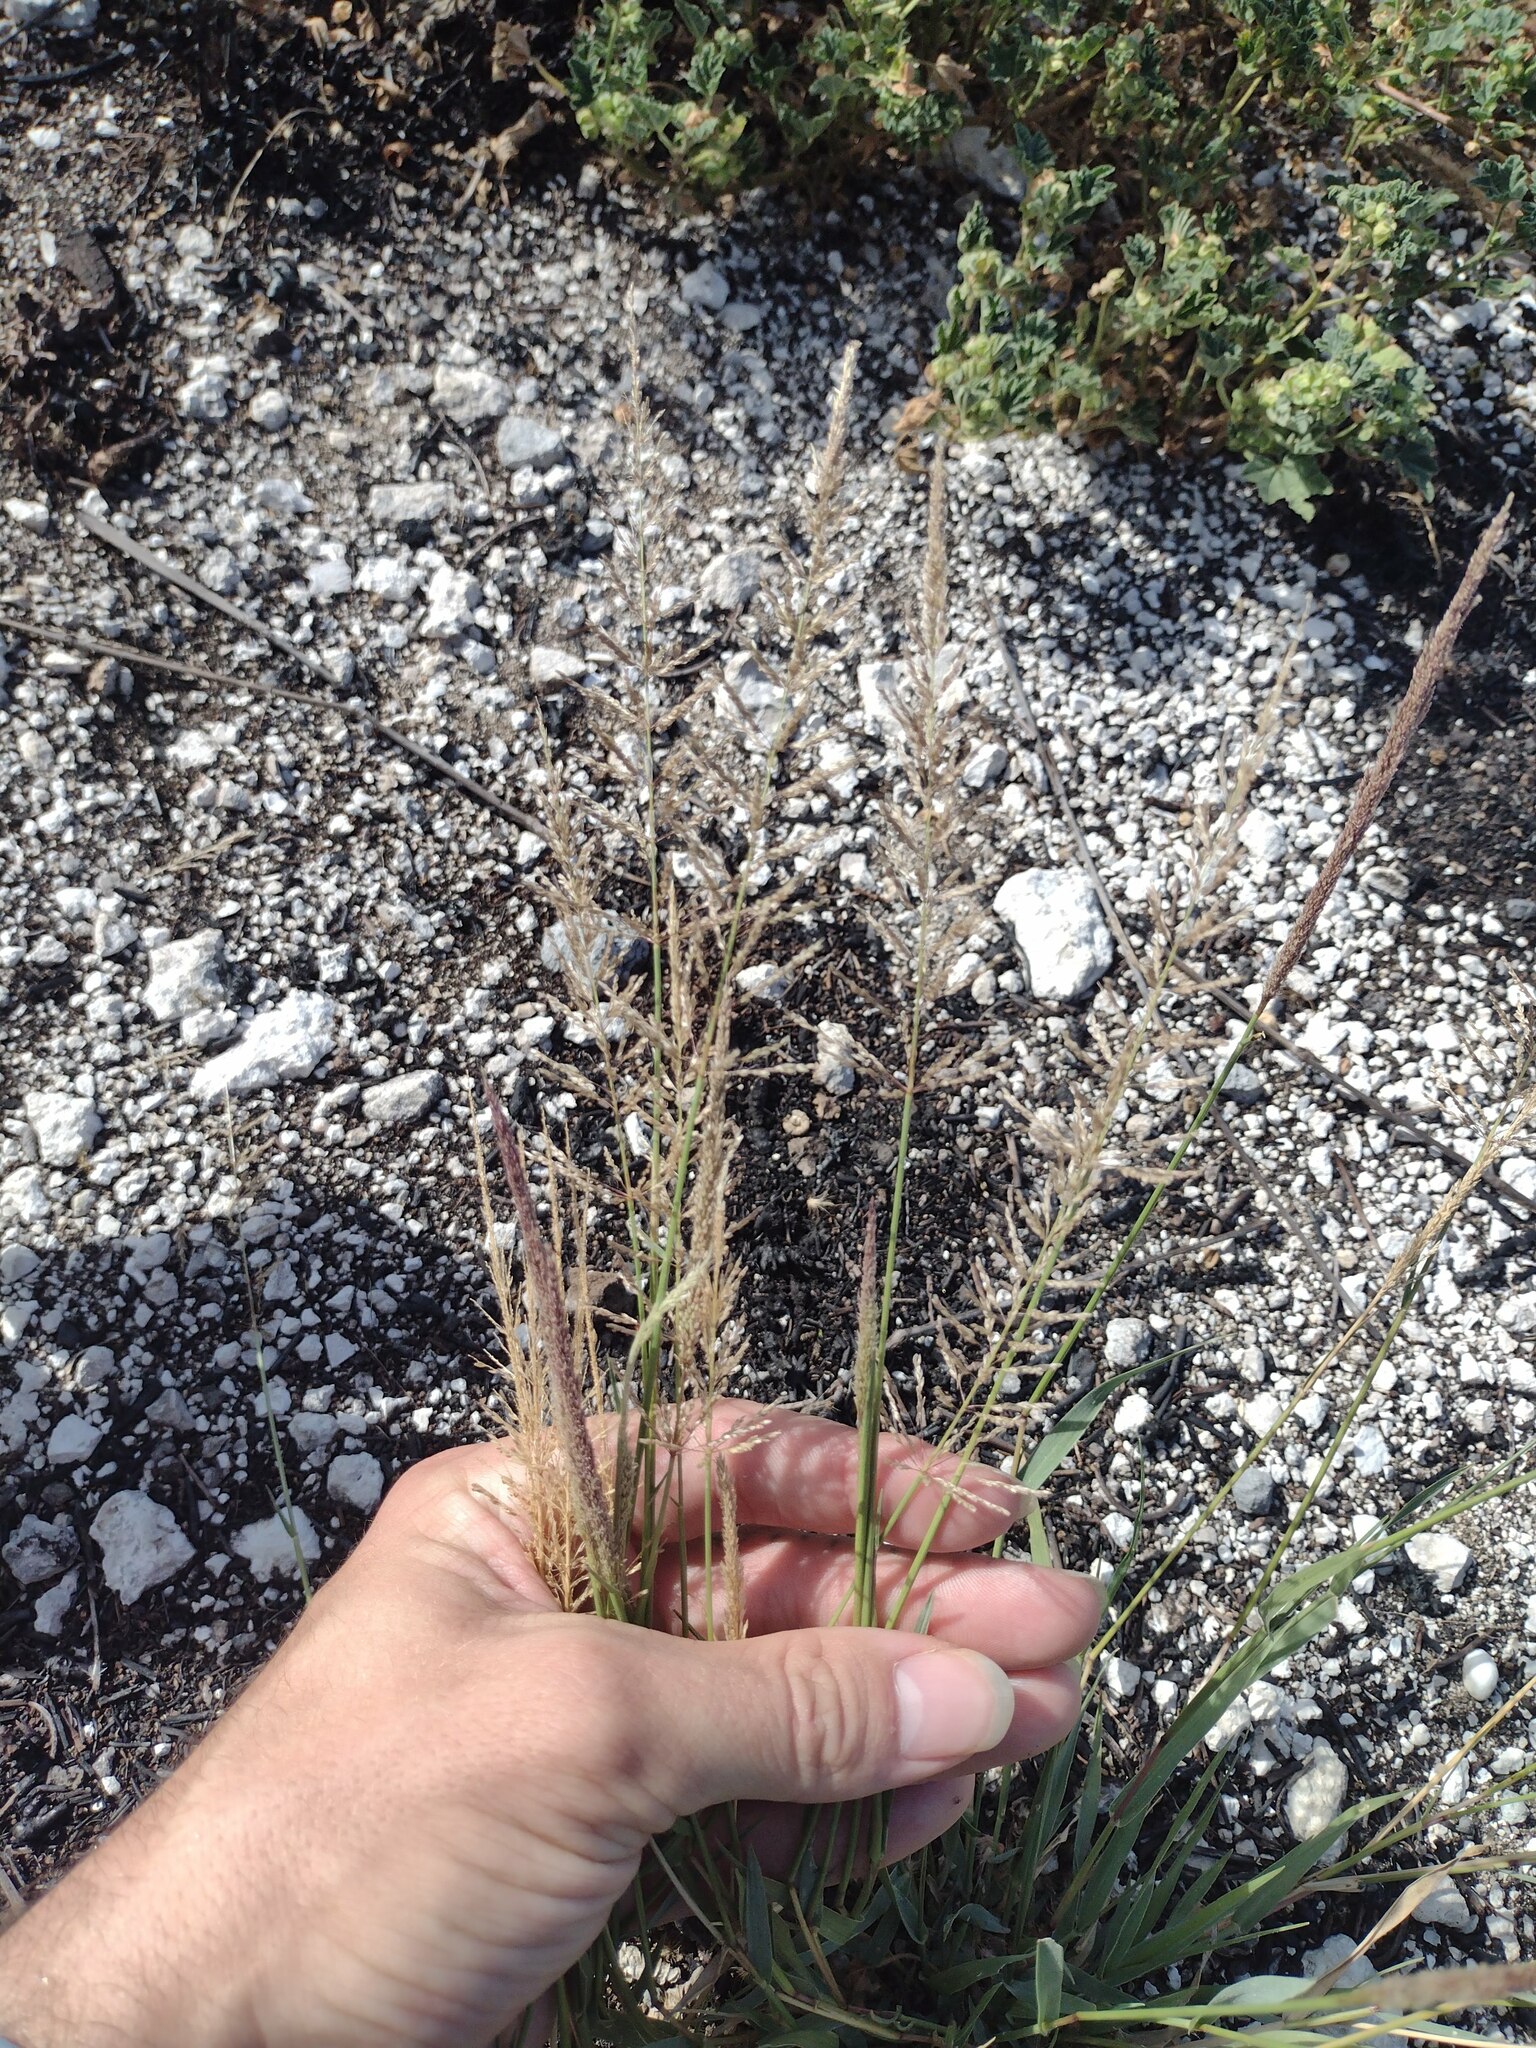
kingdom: Plantae
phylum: Tracheophyta
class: Liliopsida
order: Poales
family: Poaceae
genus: Sporobolus
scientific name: Sporobolus pyramidatus
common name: Whorled dropseed
